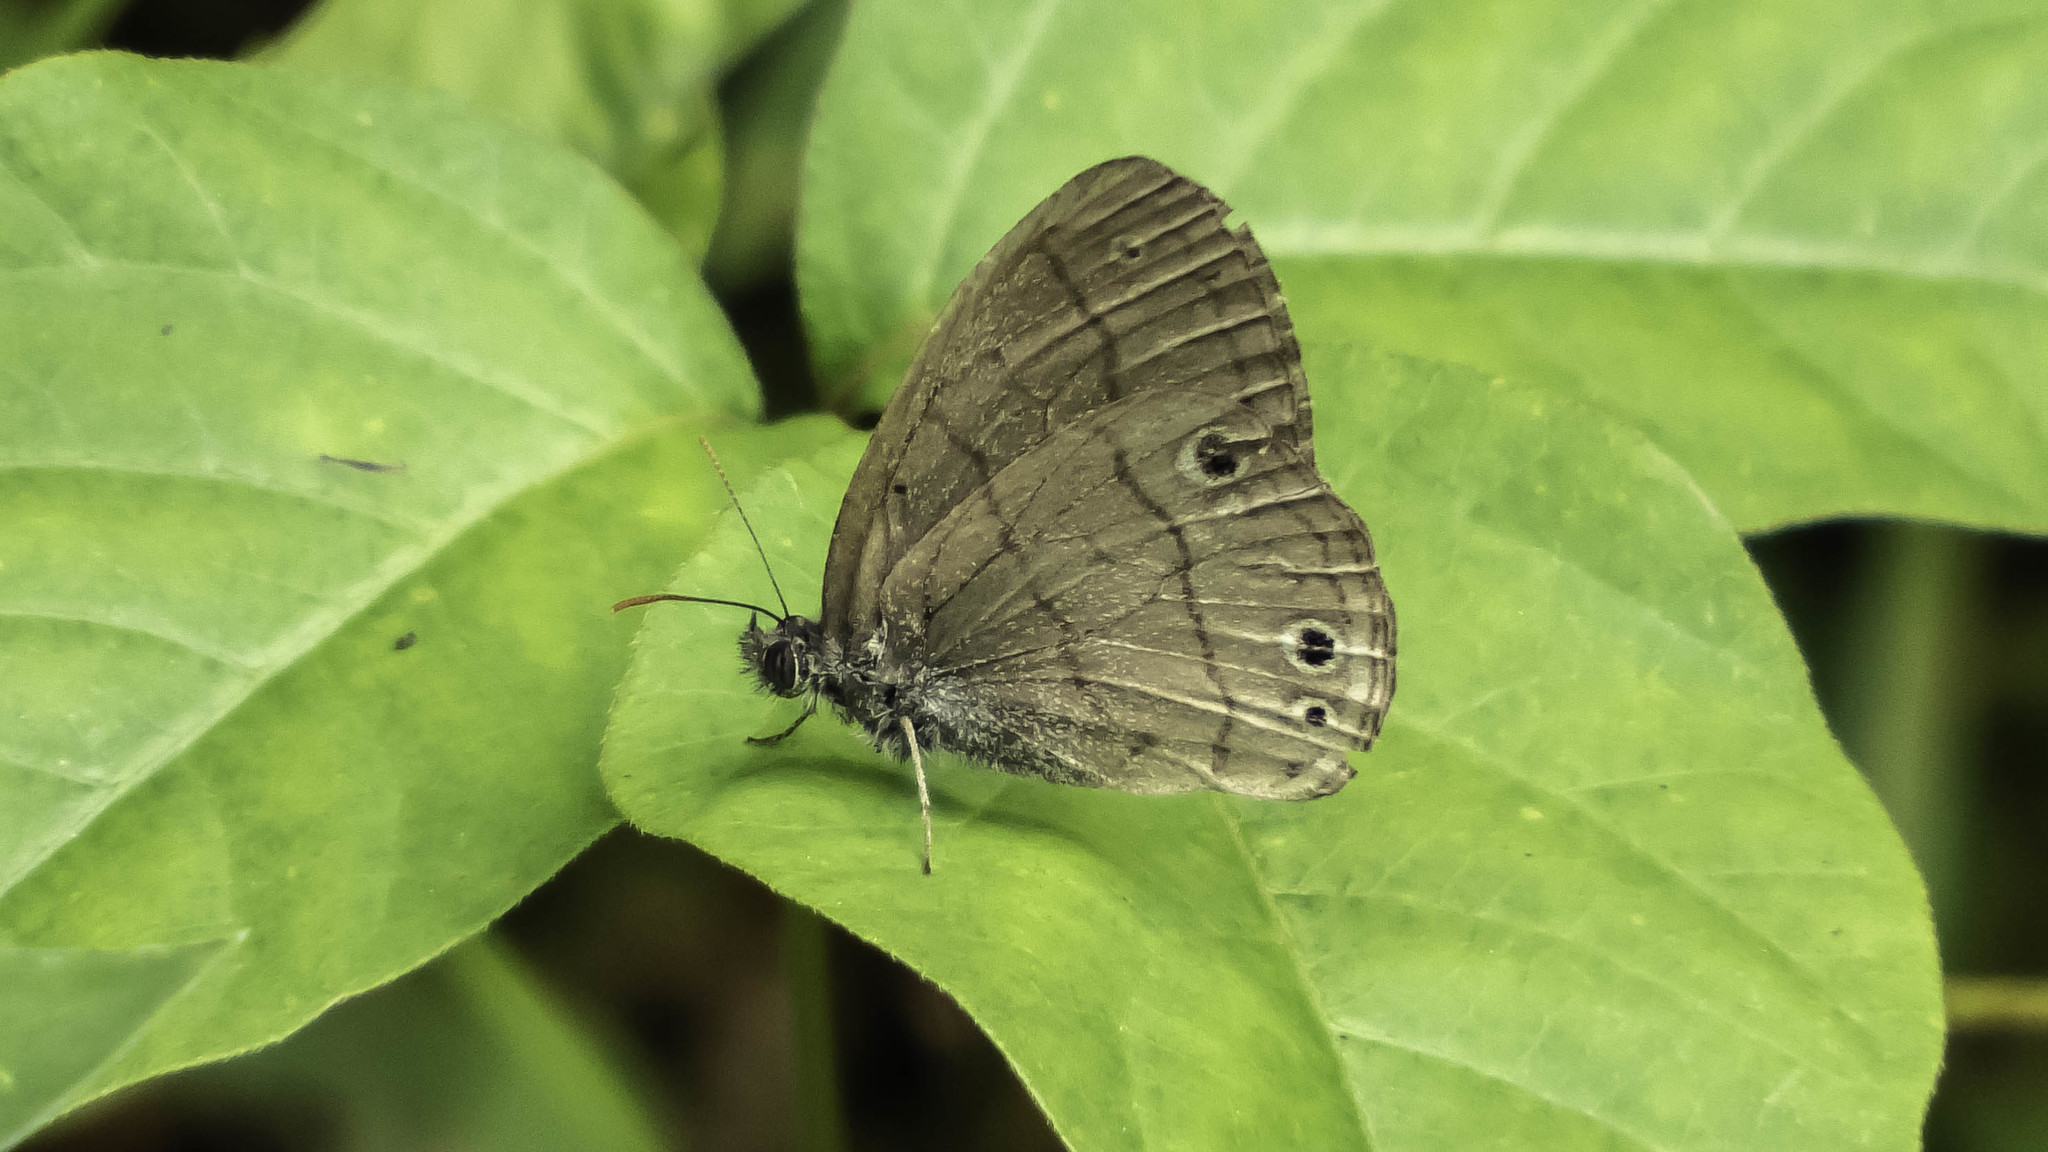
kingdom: Animalia
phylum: Arthropoda
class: Insecta
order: Lepidoptera
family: Nymphalidae
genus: Hermeuptychia
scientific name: Hermeuptychia hermes
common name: Hermes satyr
